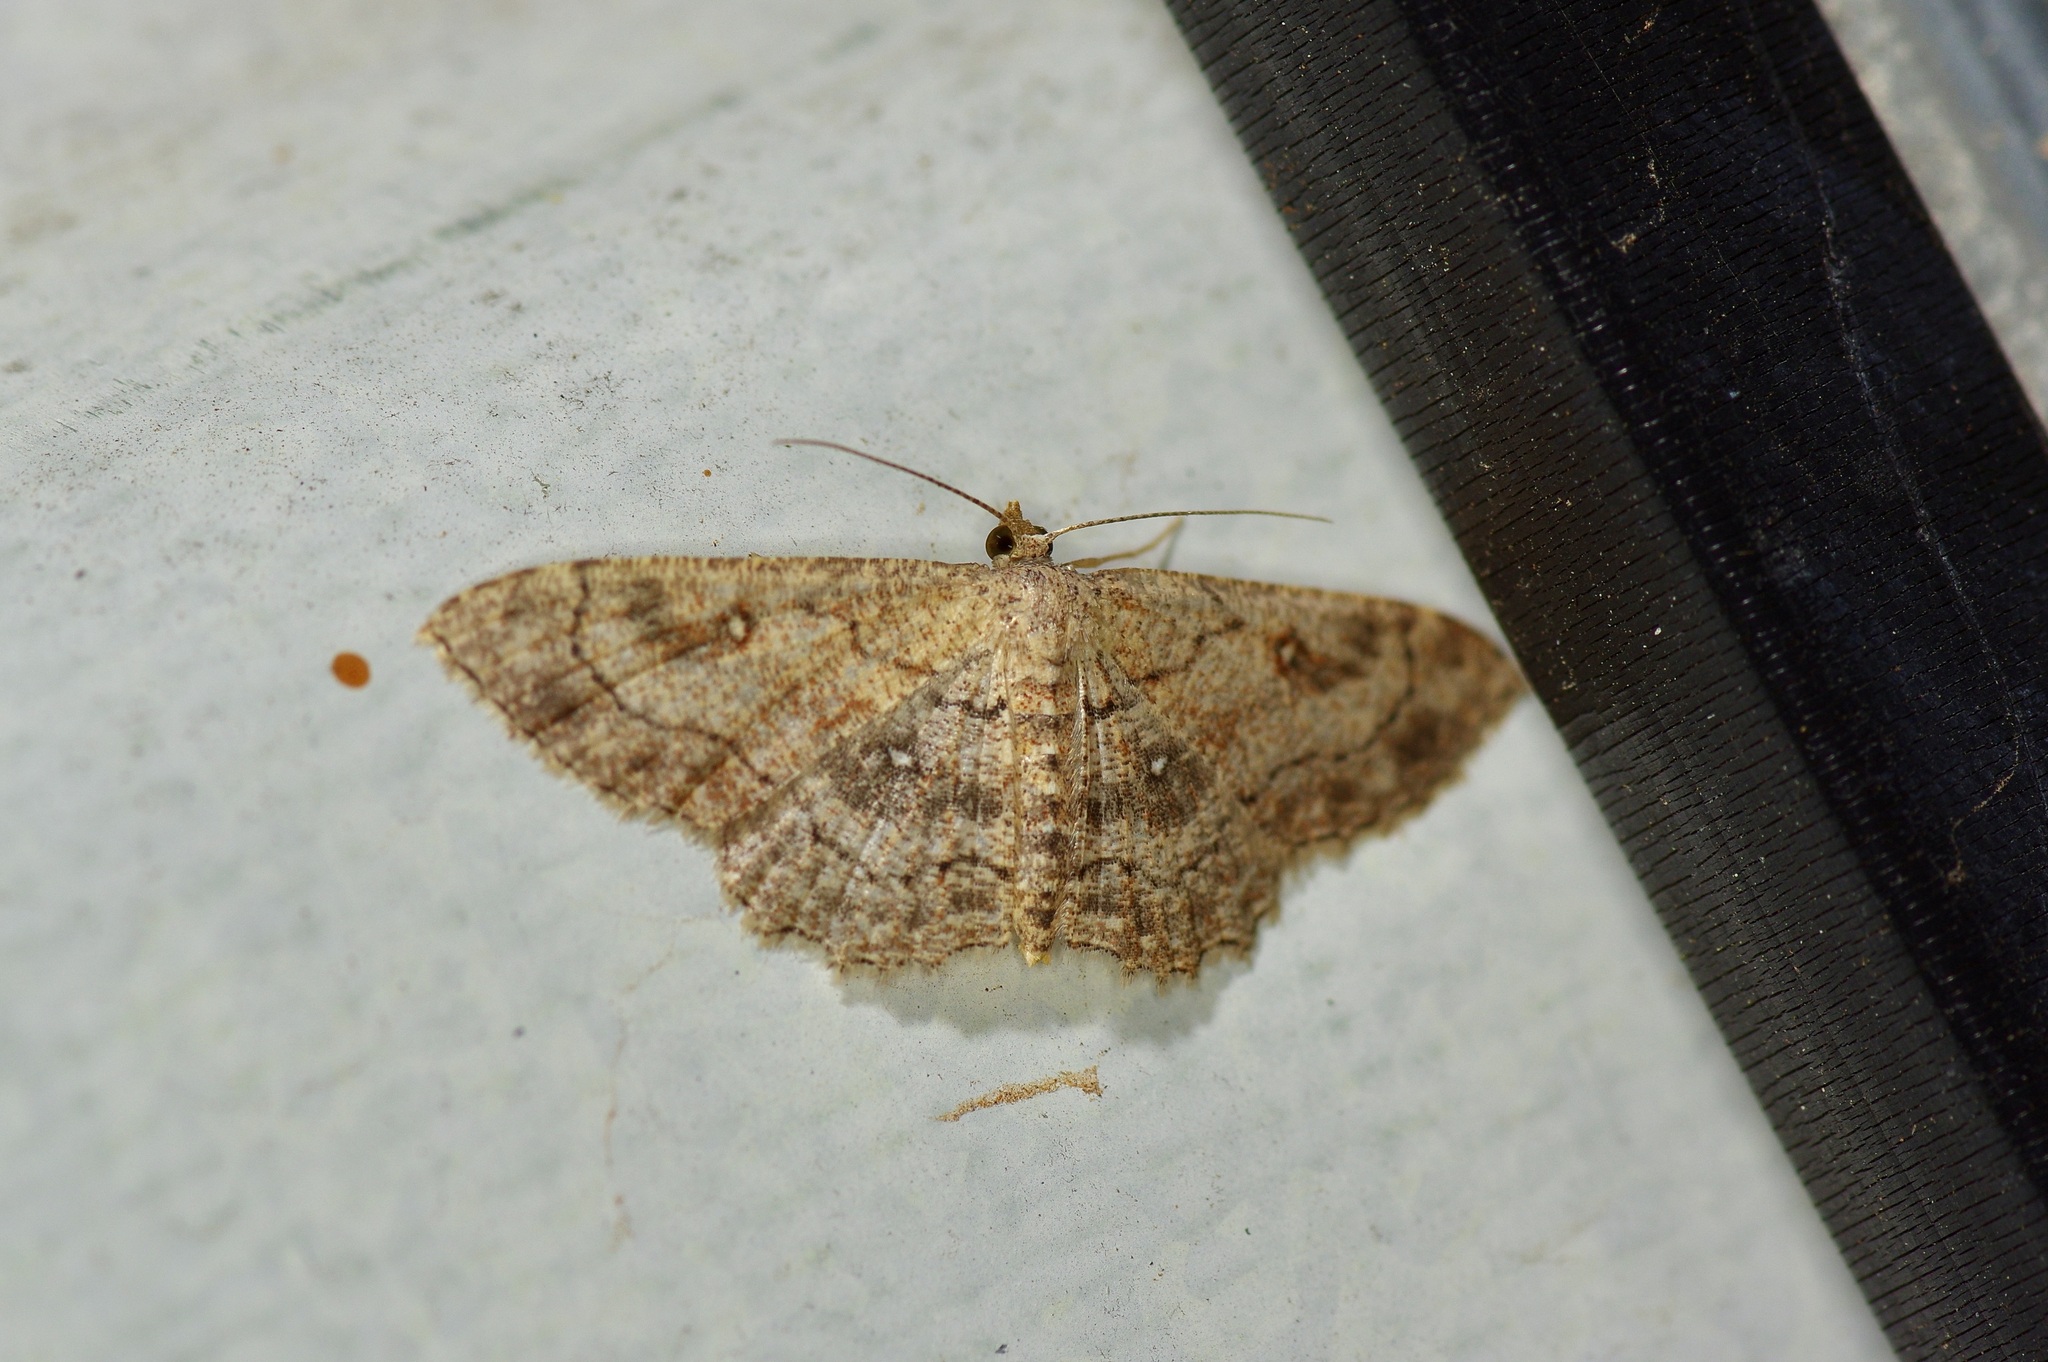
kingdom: Animalia
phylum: Arthropoda
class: Insecta
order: Lepidoptera
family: Geometridae
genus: Cyclophora
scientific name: Cyclophora nanaria
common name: Cankerworm
